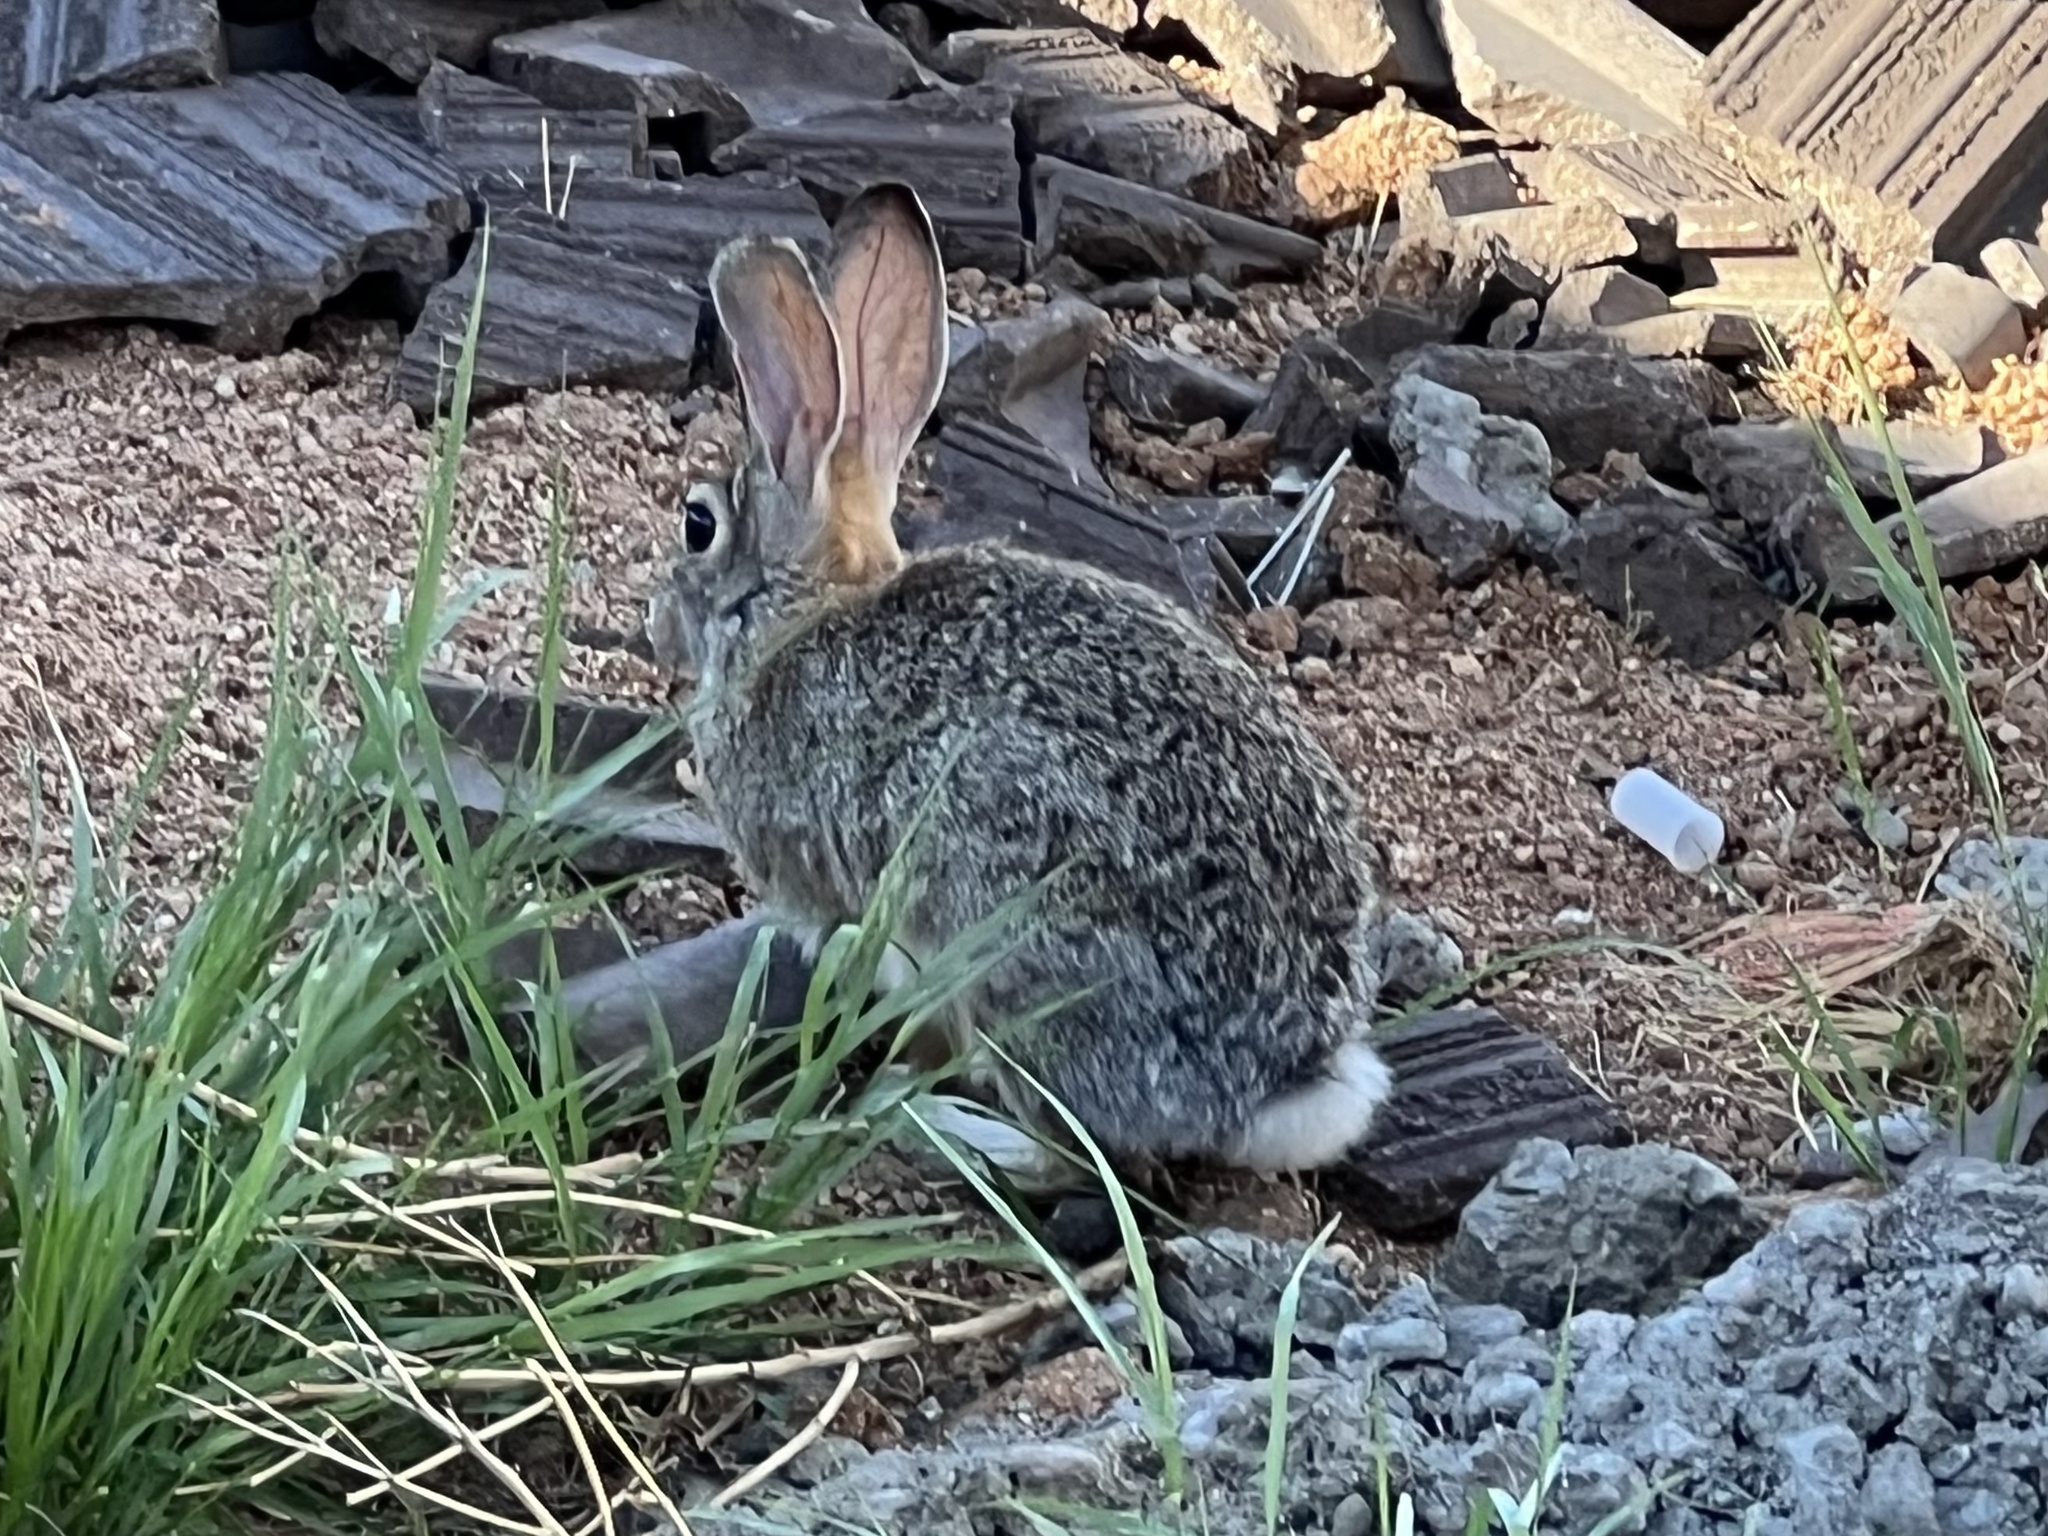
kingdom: Animalia
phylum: Chordata
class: Mammalia
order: Lagomorpha
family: Leporidae
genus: Sylvilagus
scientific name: Sylvilagus audubonii
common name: Desert cottontail
